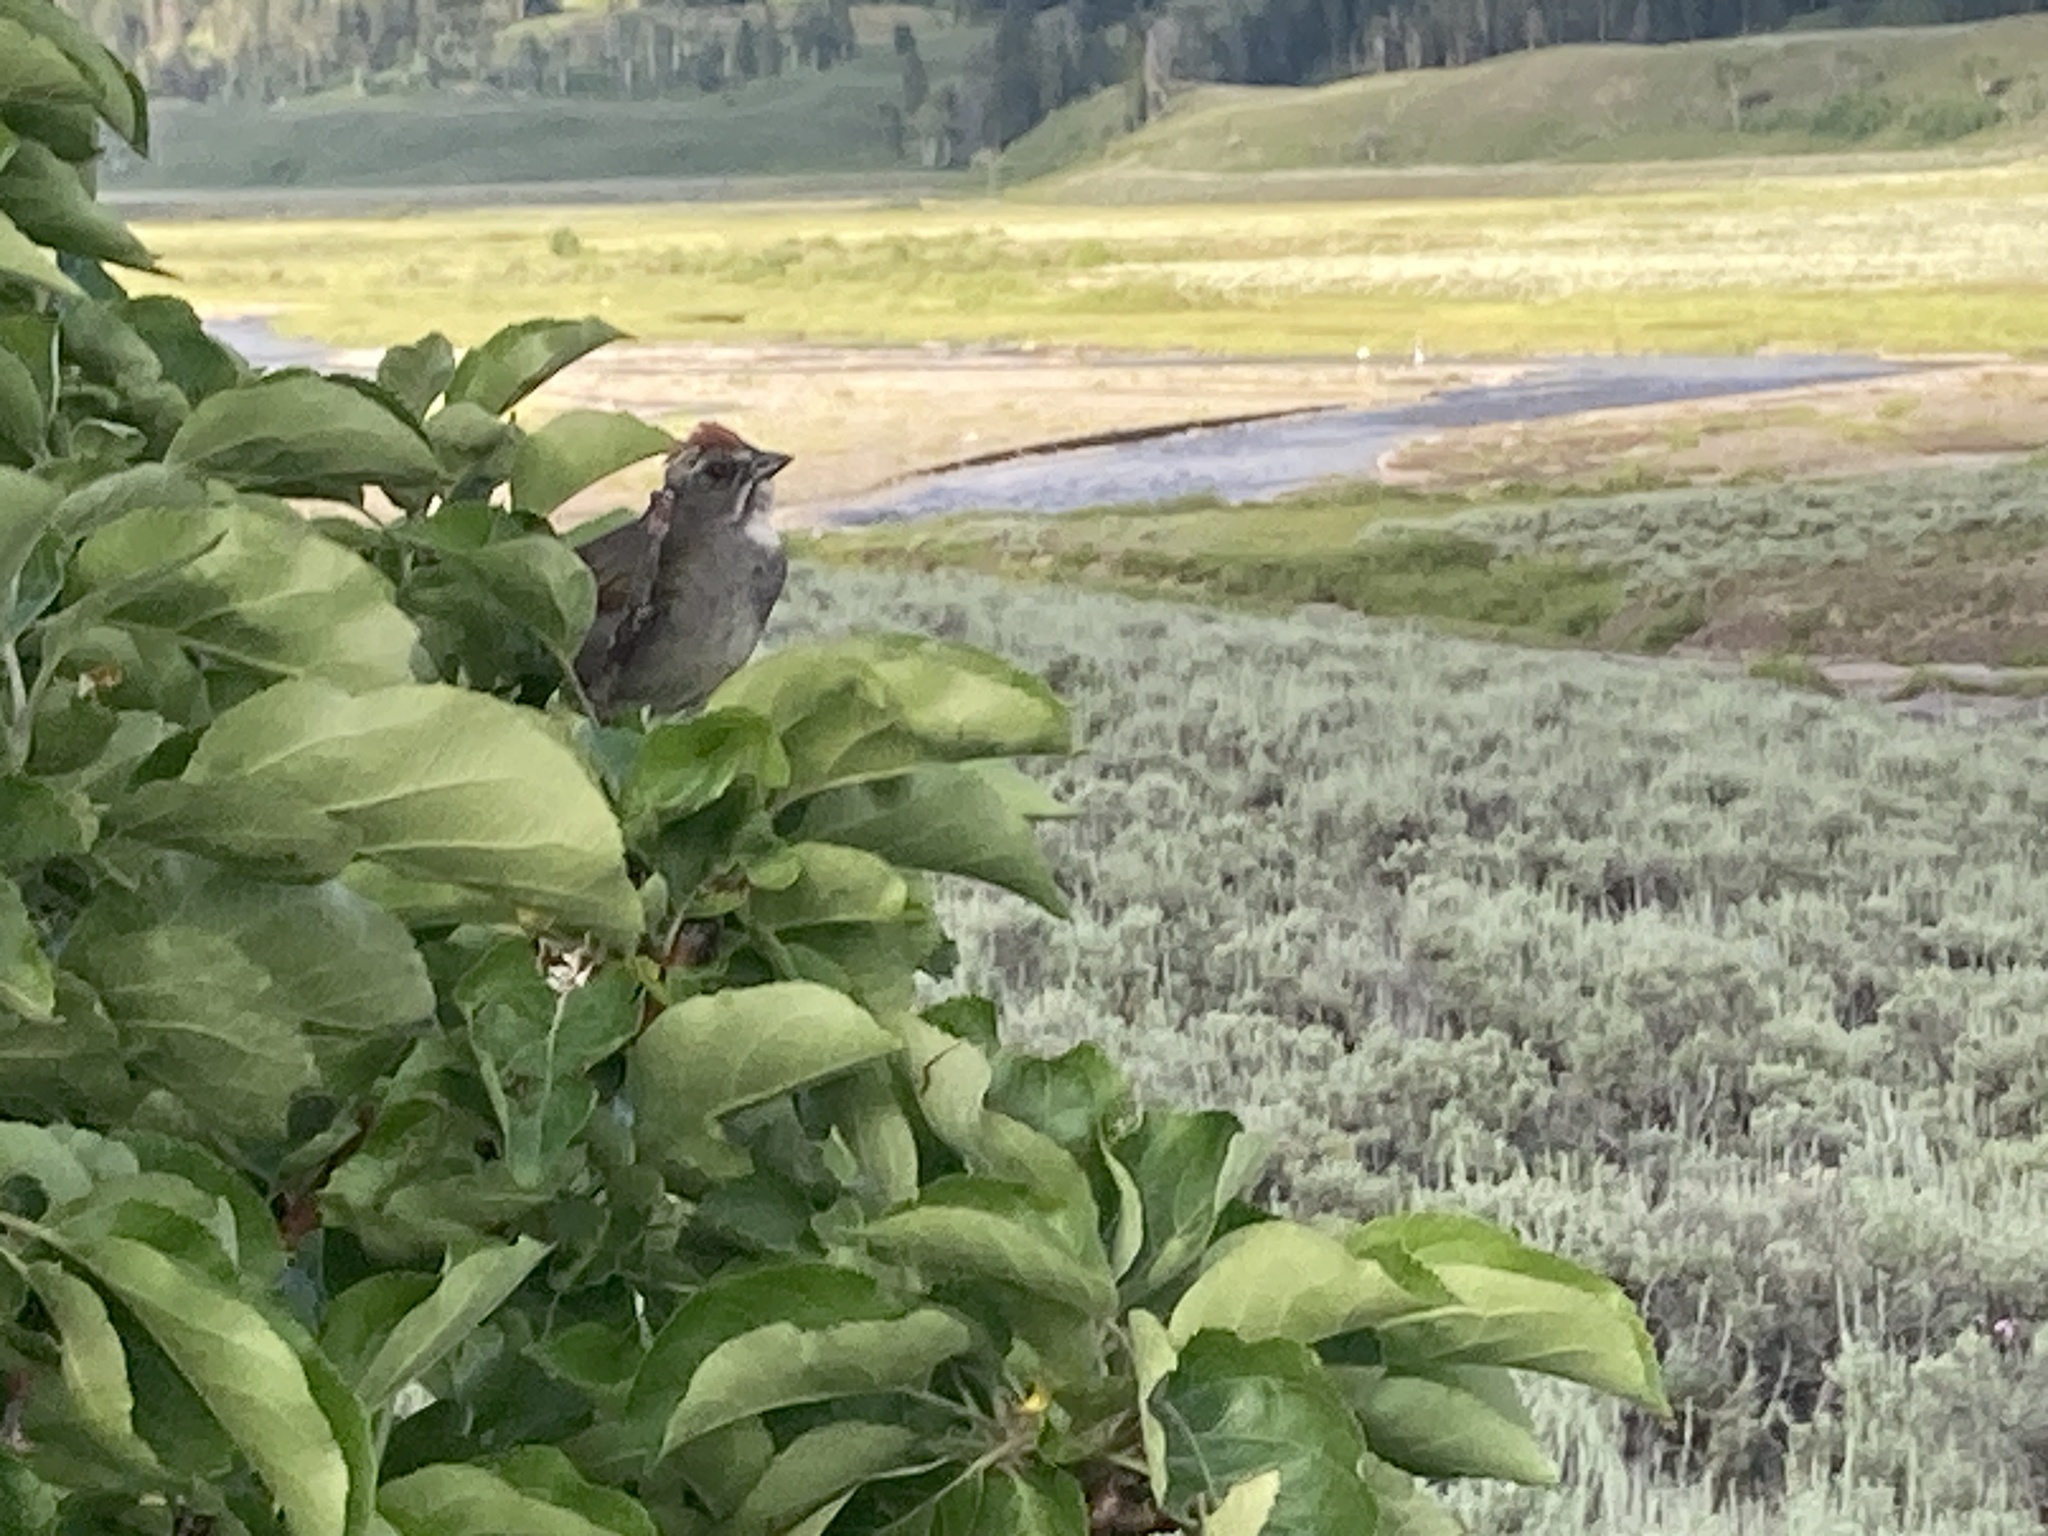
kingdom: Animalia
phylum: Chordata
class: Aves
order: Passeriformes
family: Passerellidae
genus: Pipilo
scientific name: Pipilo chlorurus
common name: Green-tailed towhee
